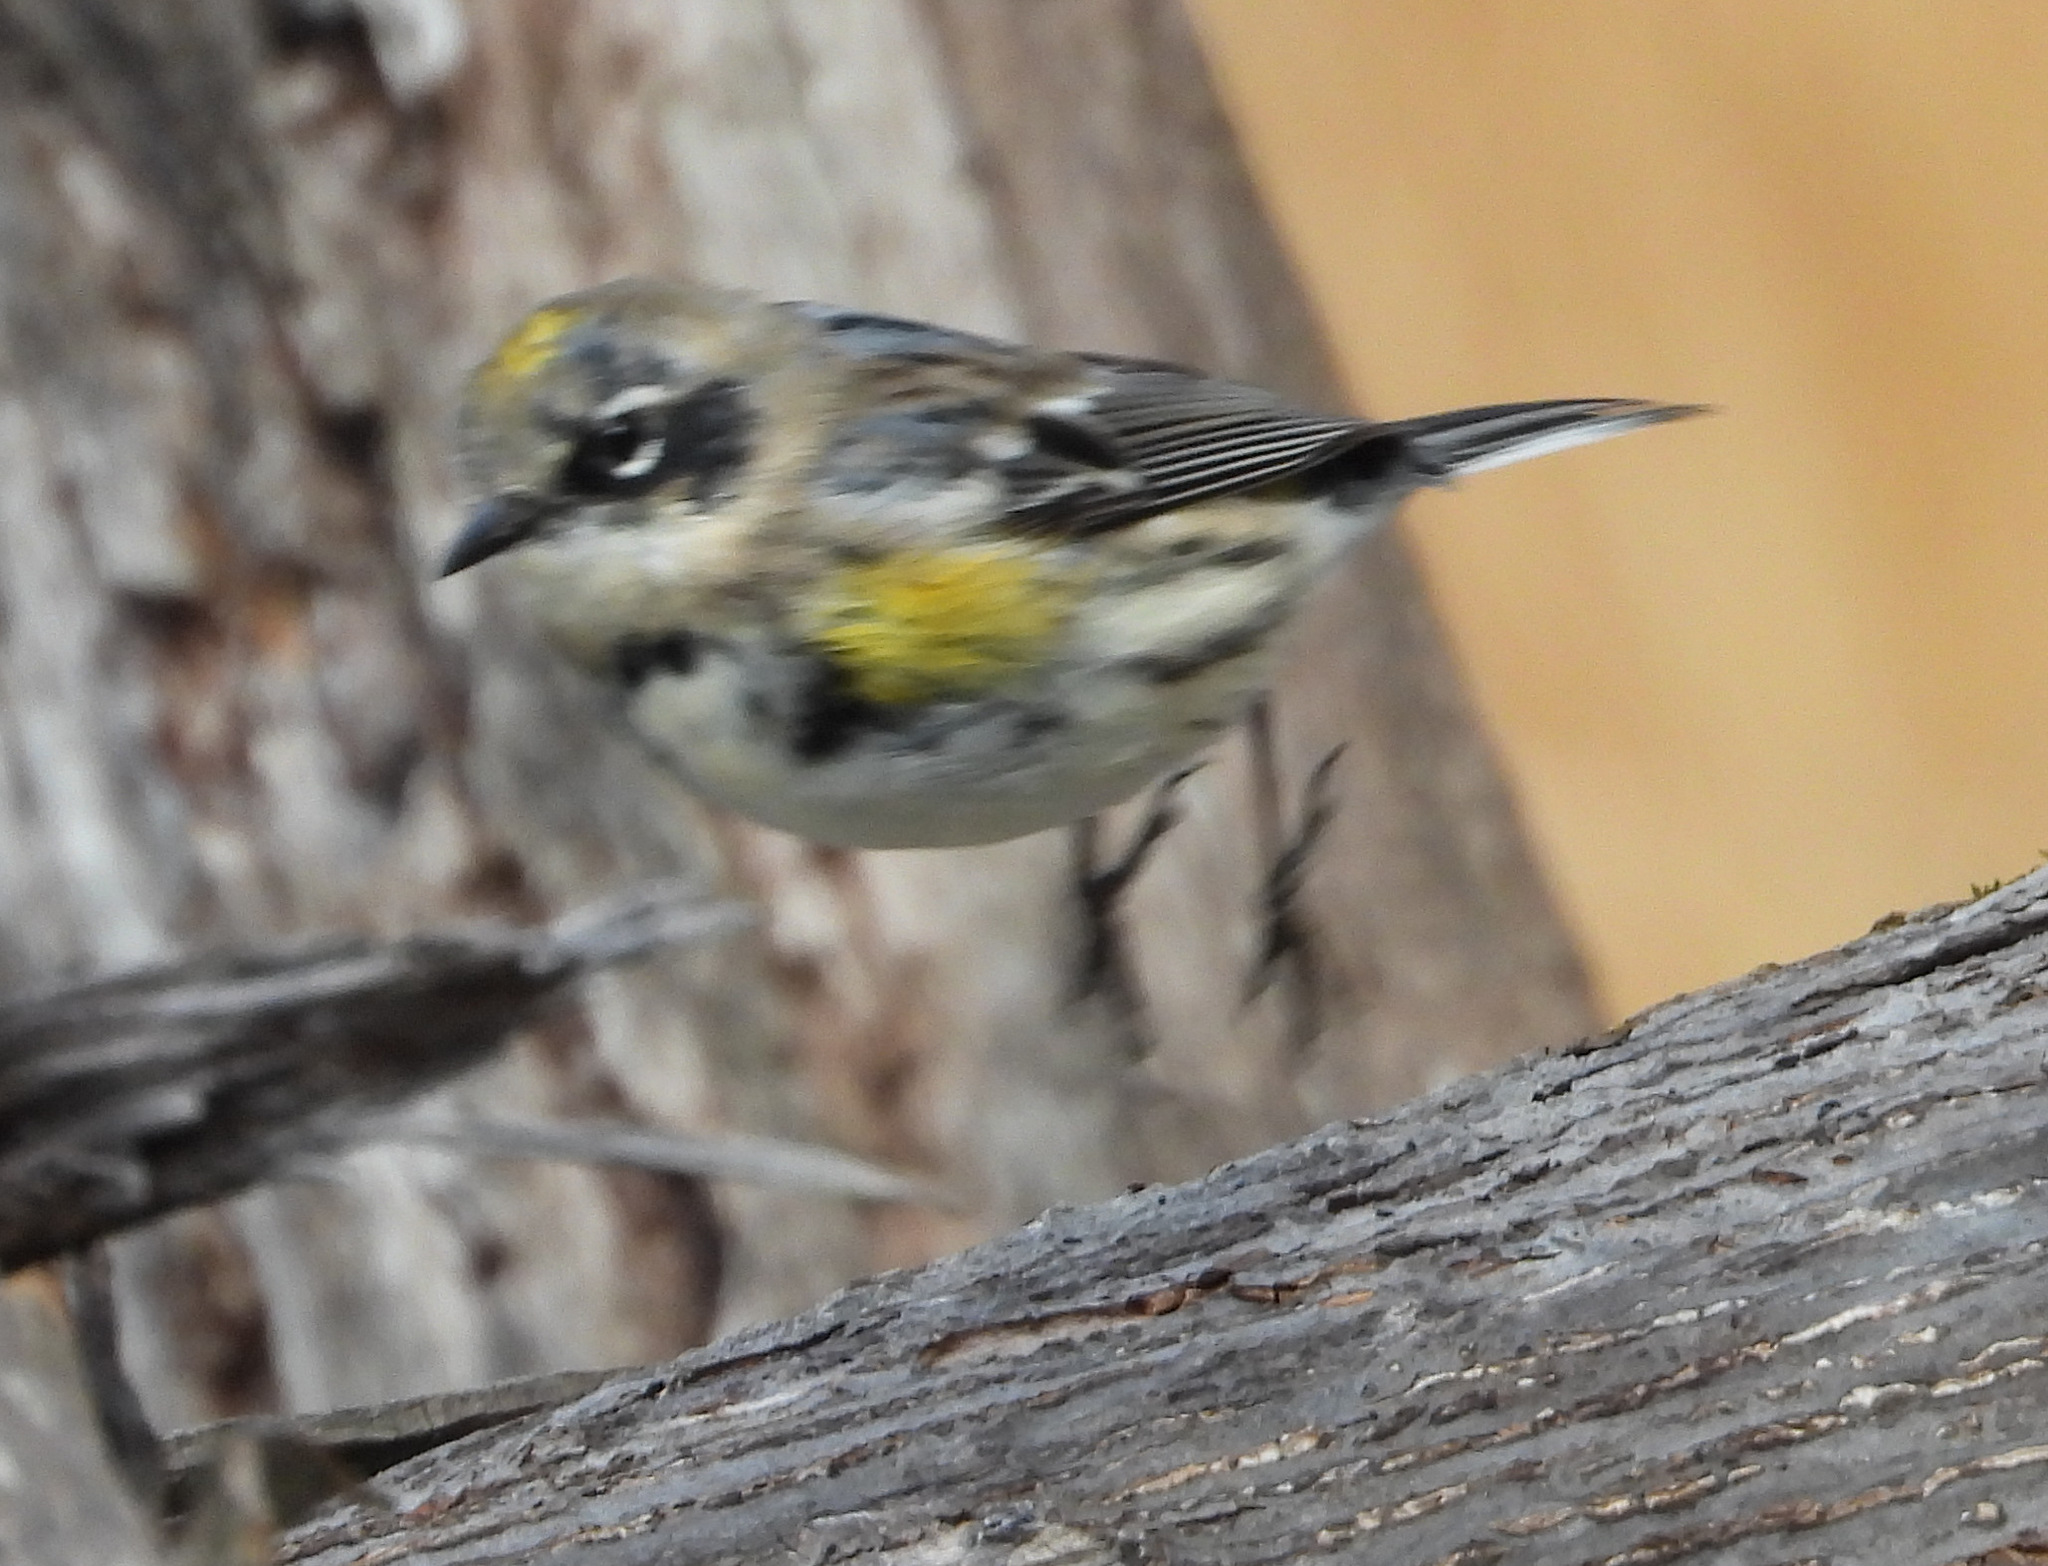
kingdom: Animalia
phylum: Chordata
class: Aves
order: Passeriformes
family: Parulidae
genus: Setophaga
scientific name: Setophaga coronata
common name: Myrtle warbler
